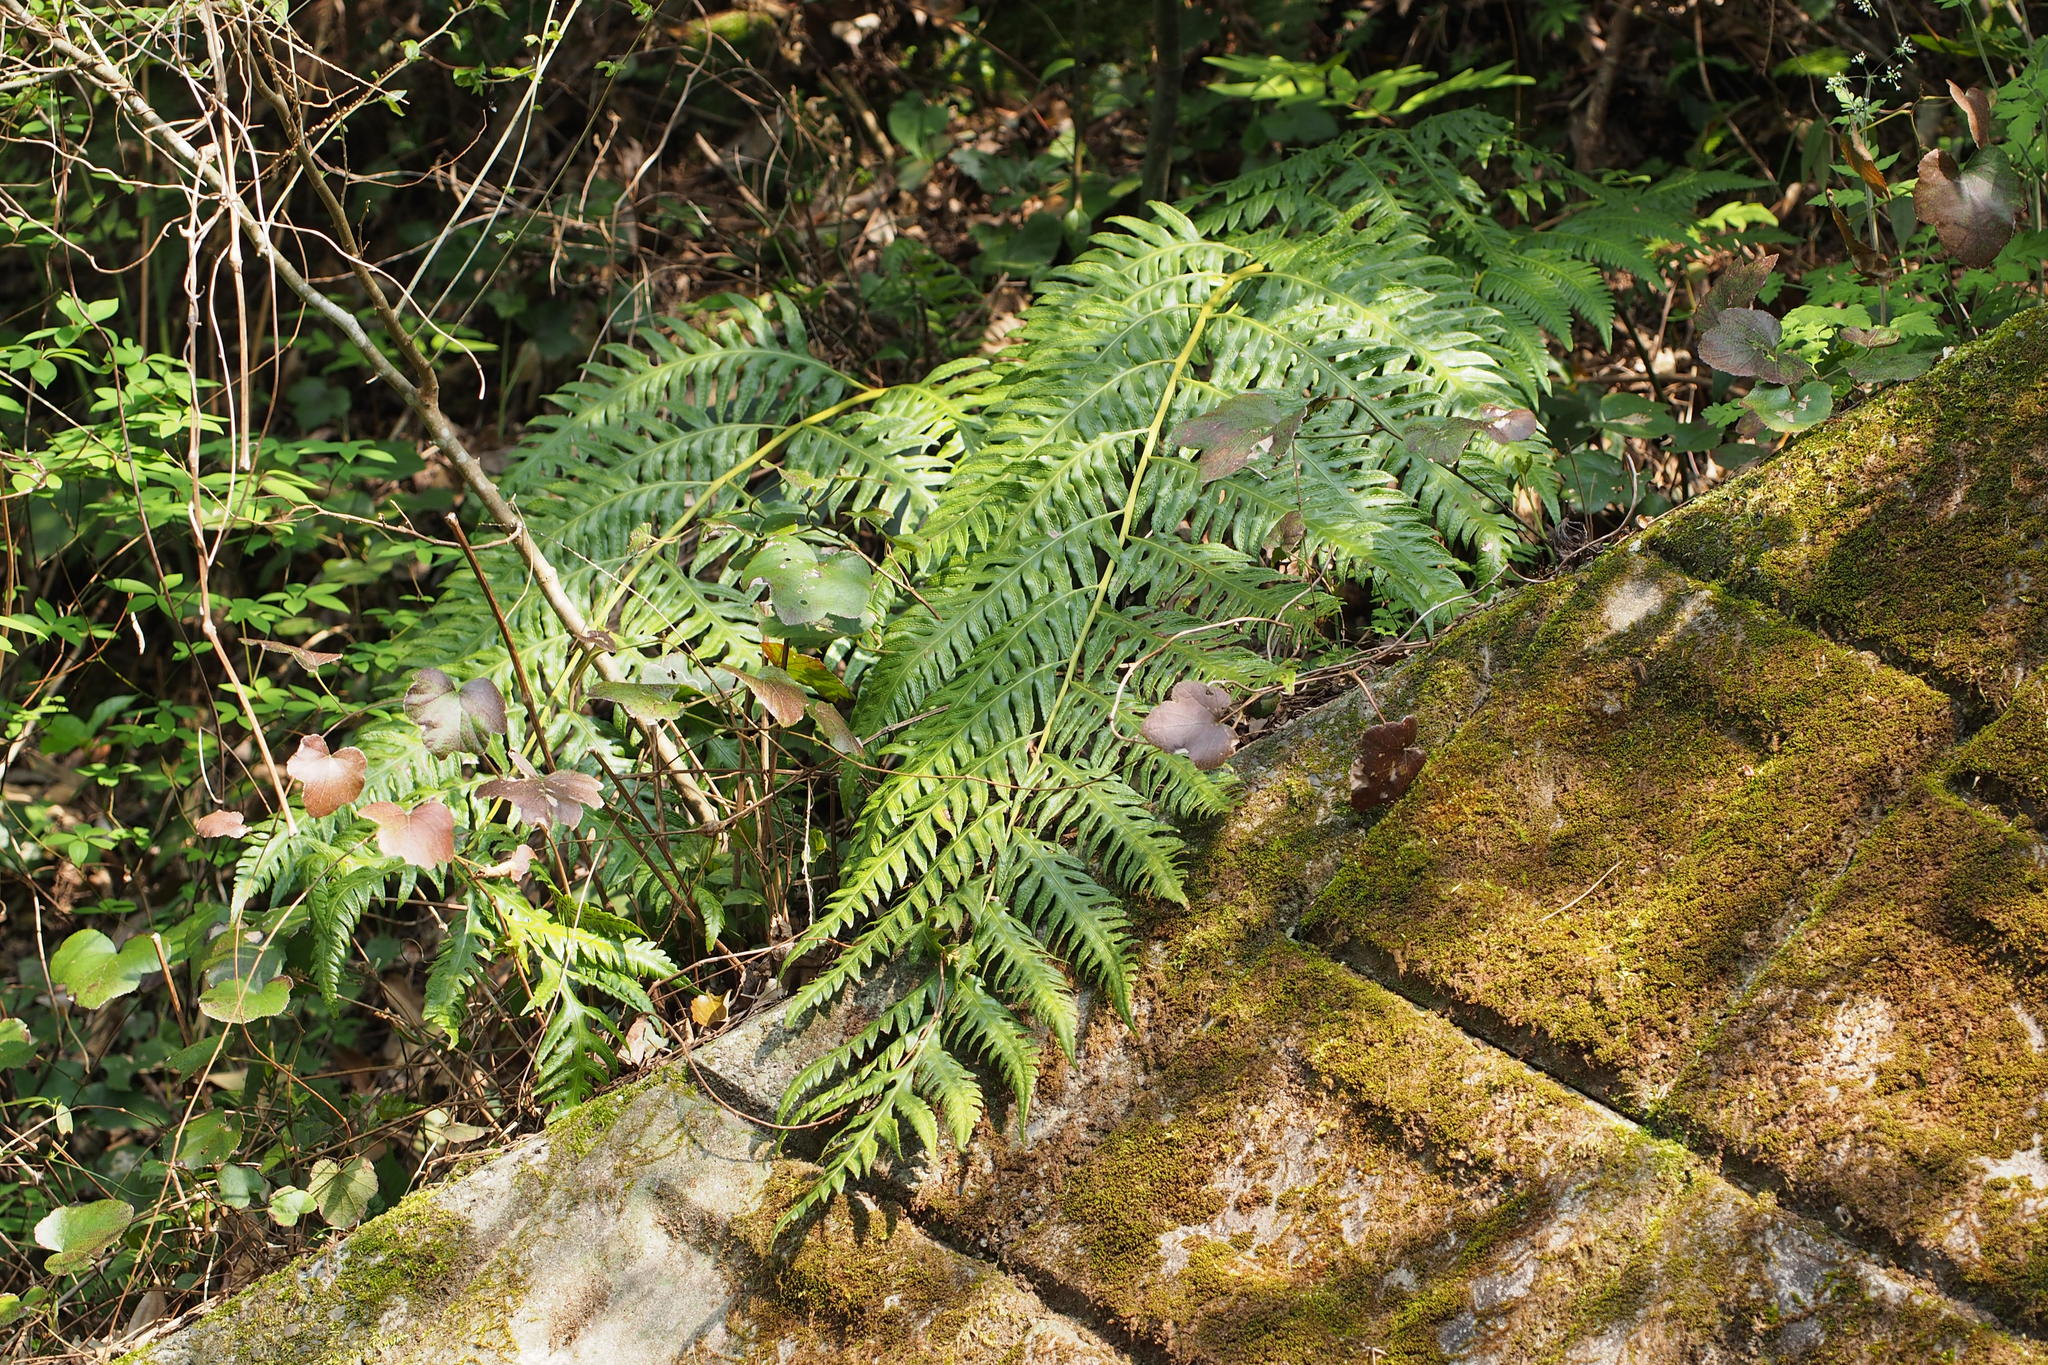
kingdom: Plantae
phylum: Tracheophyta
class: Polypodiopsida
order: Polypodiales
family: Blechnaceae
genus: Woodwardia
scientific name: Woodwardia orientalis
